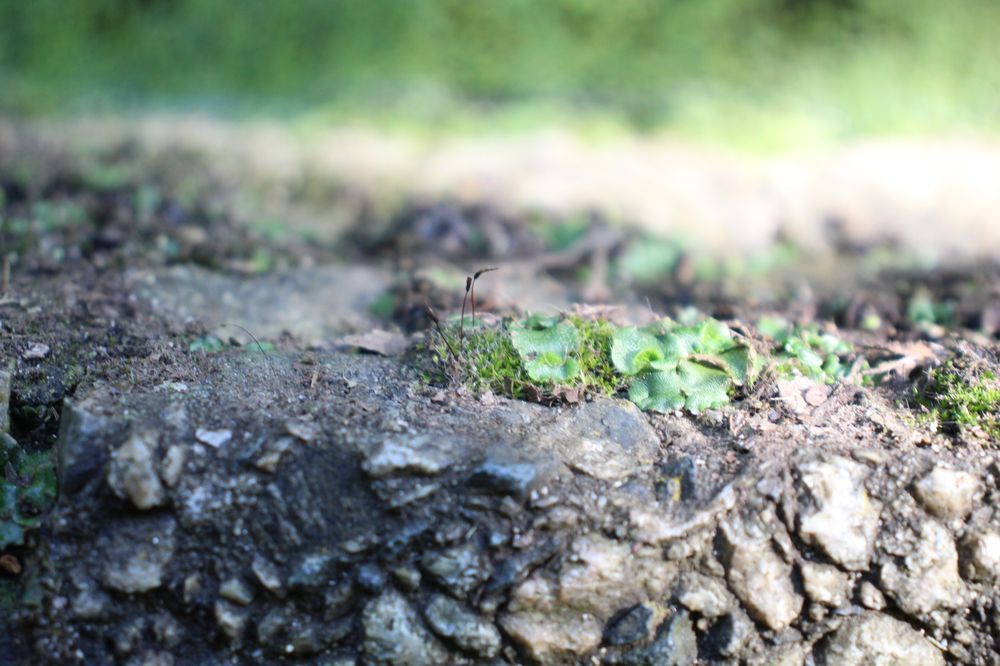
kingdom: Plantae
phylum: Marchantiophyta
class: Marchantiopsida
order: Lunulariales
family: Lunulariaceae
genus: Lunularia
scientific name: Lunularia cruciata
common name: Crescent-cup liverwort
